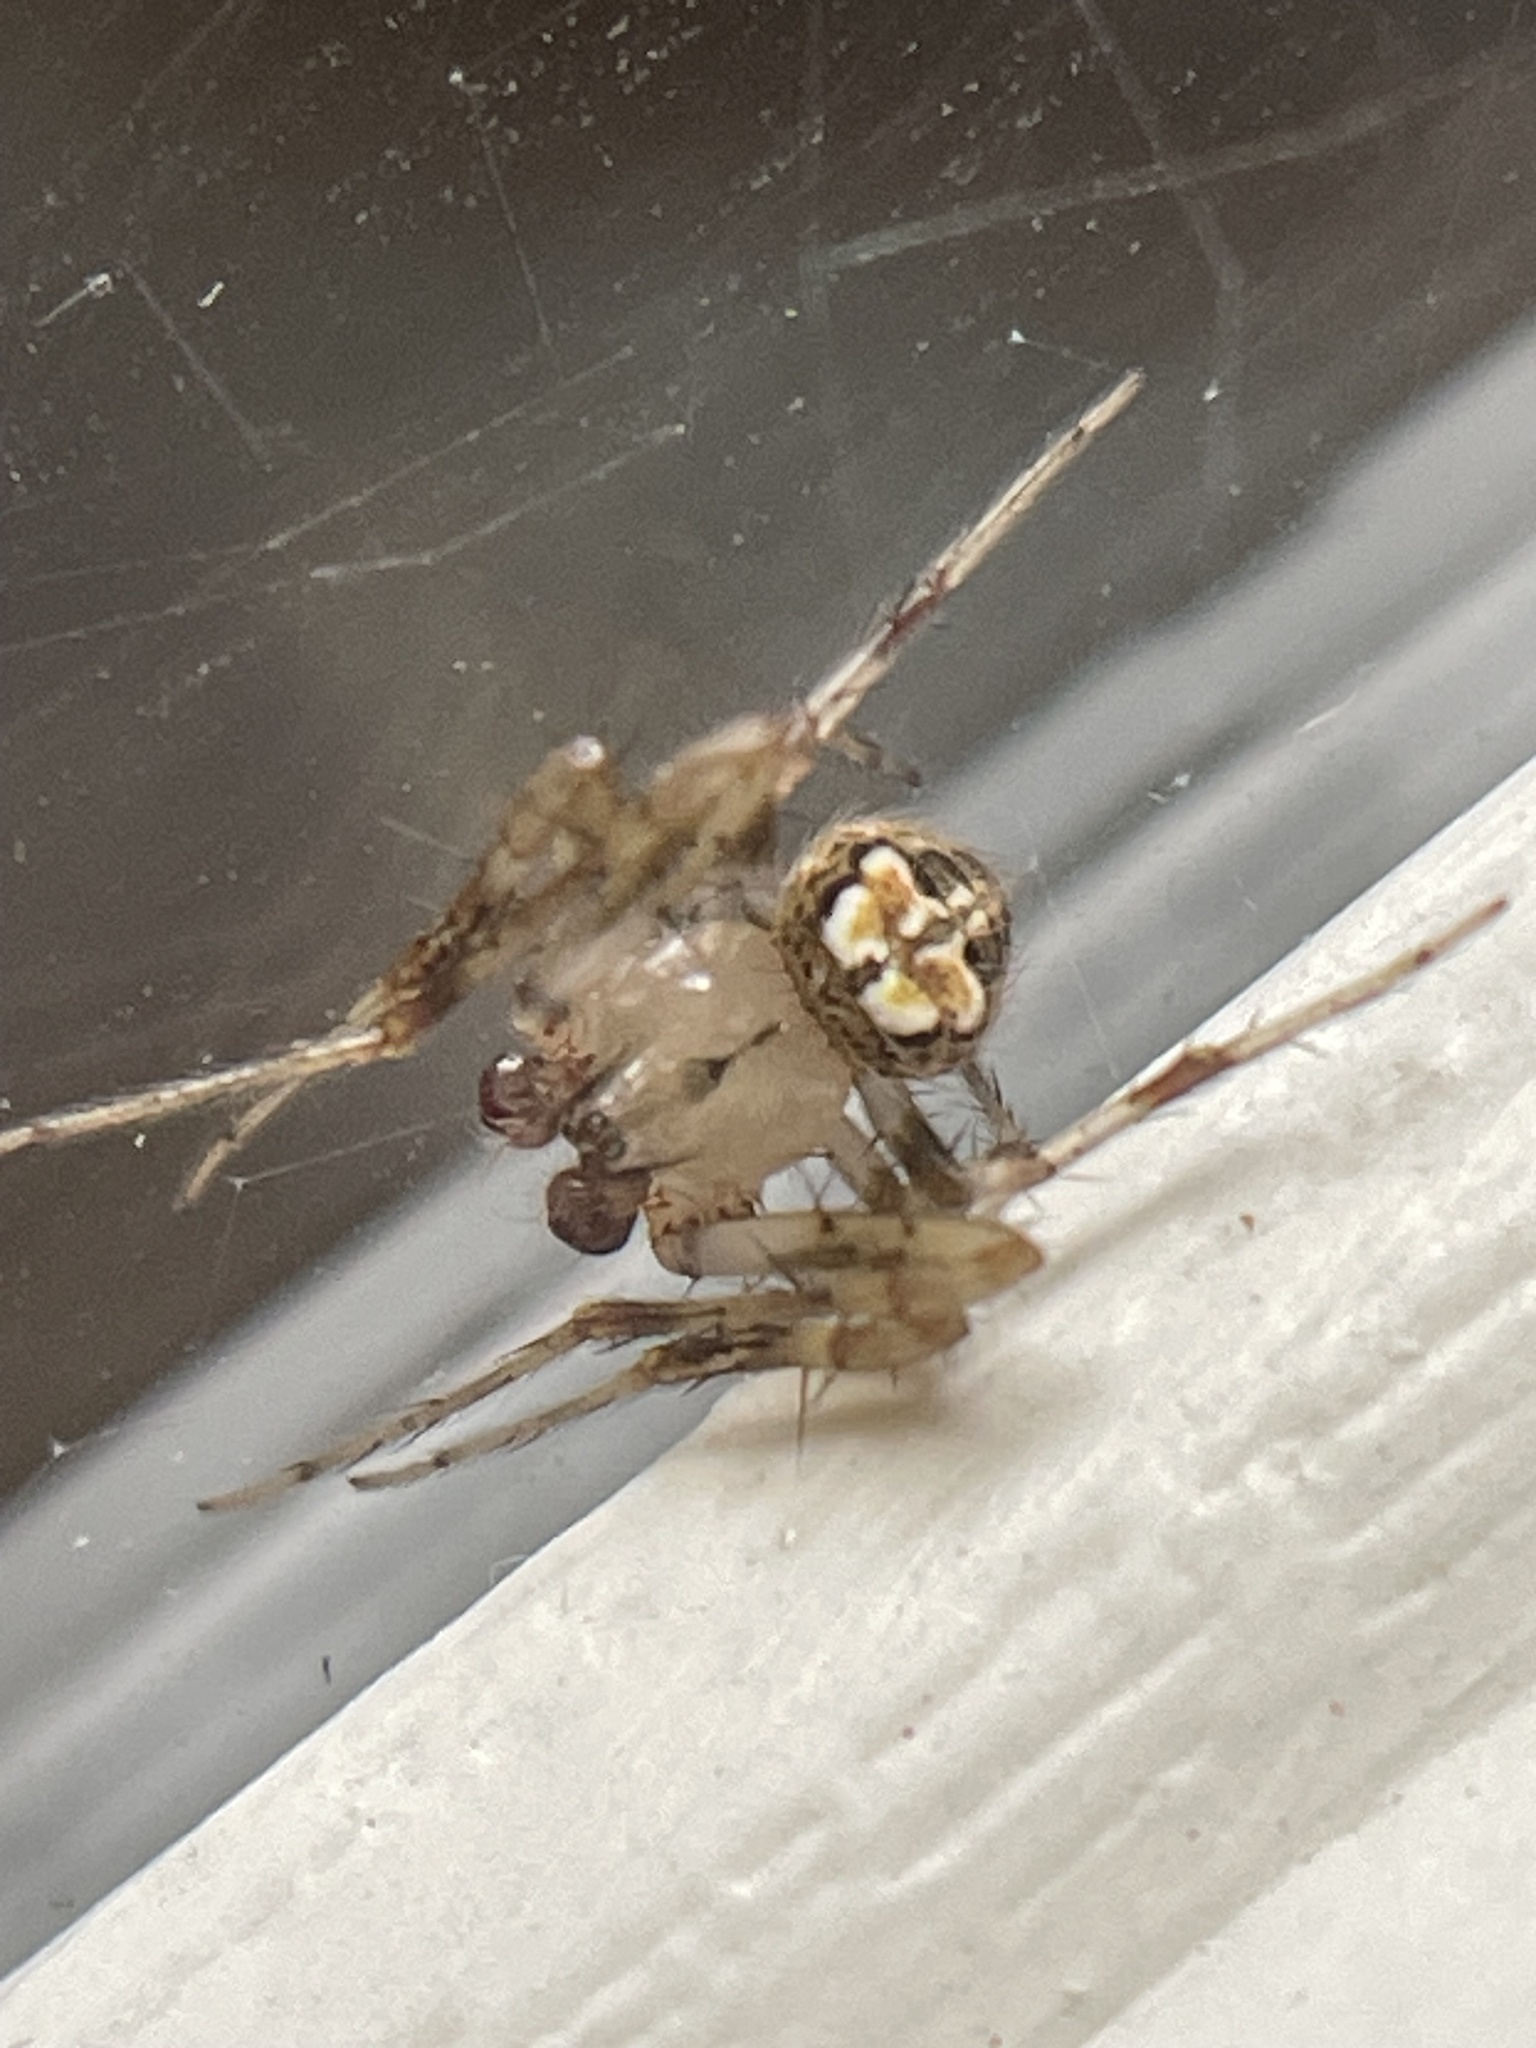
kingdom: Animalia
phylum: Arthropoda
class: Arachnida
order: Araneae
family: Araneidae
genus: Araneus
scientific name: Araneus pegnia
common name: Orb weavers
